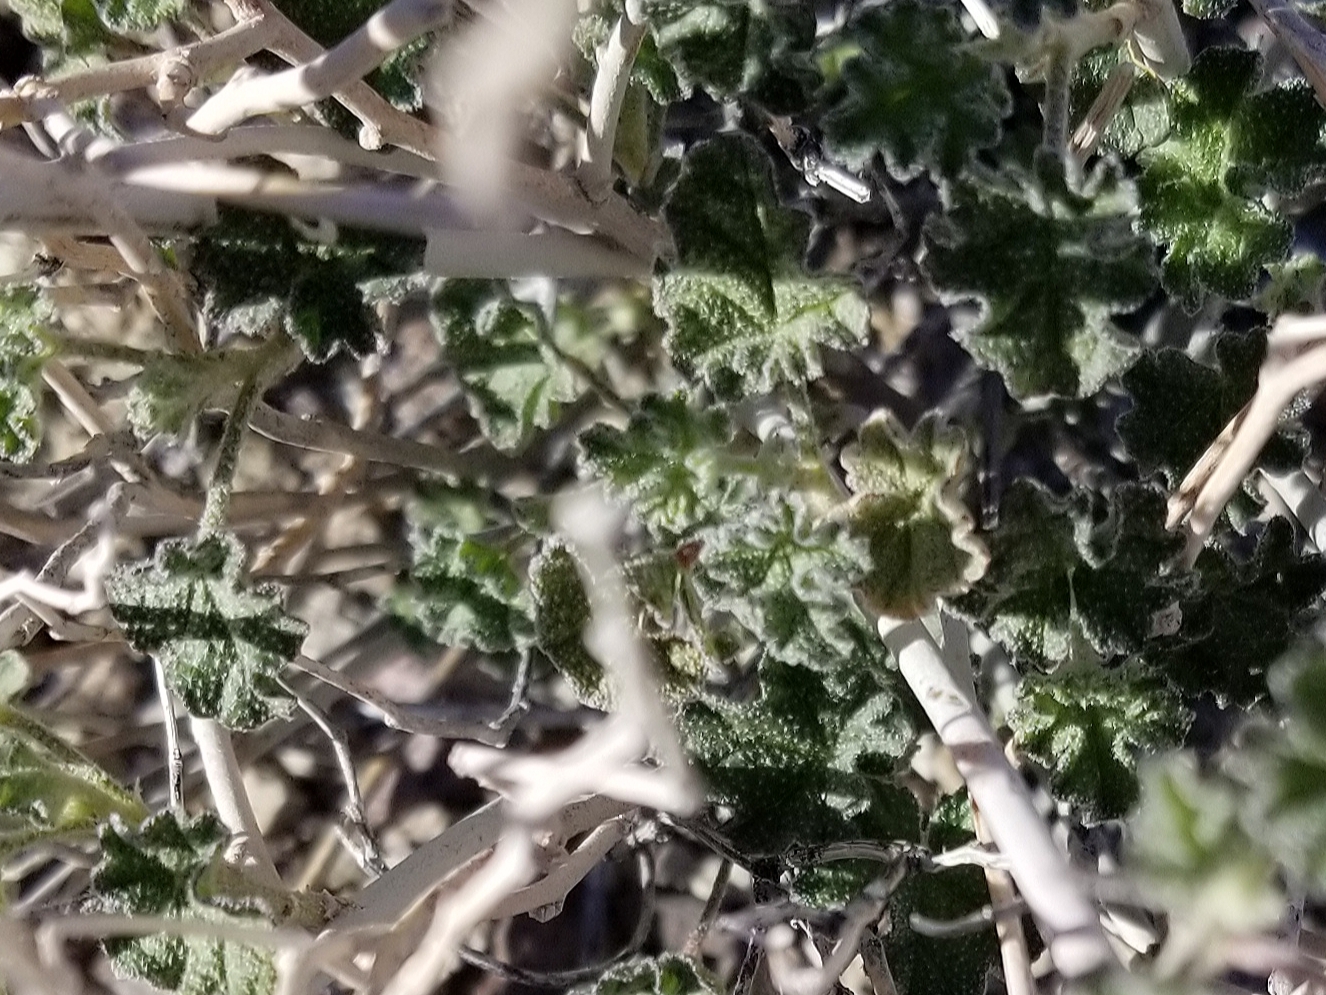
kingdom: Plantae
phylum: Tracheophyta
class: Magnoliopsida
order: Malvales
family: Malvaceae
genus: Sphaeralcea
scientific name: Sphaeralcea ambigua
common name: Apricot globe-mallow
